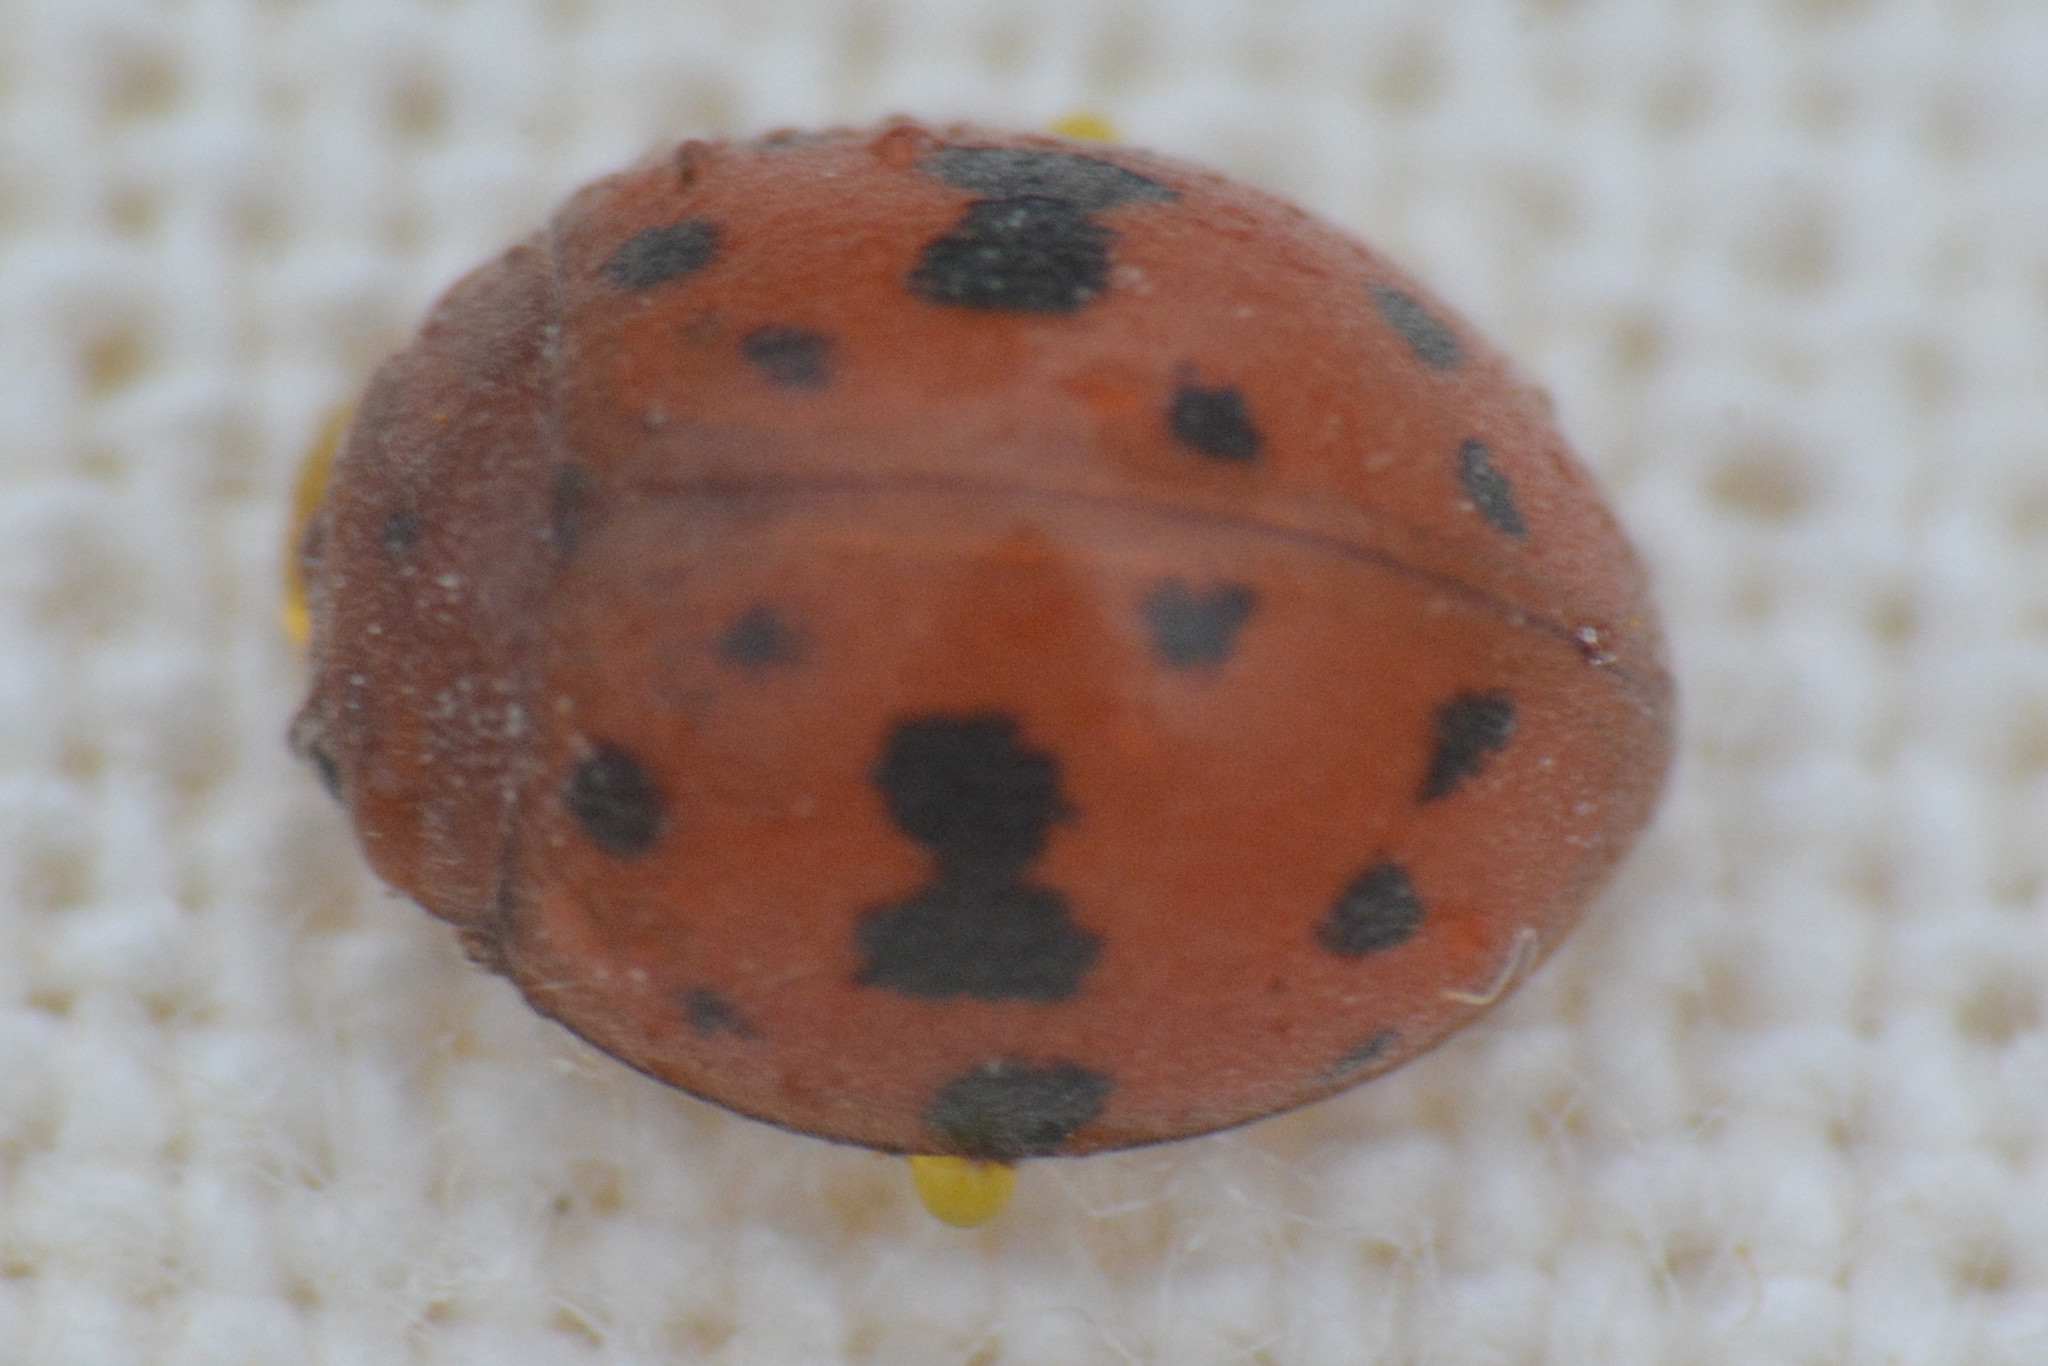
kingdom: Animalia
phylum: Arthropoda
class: Insecta
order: Coleoptera
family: Coccinellidae
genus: Subcoccinella
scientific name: Subcoccinella vigintiquatuorpunctata
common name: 24-spot ladybird
